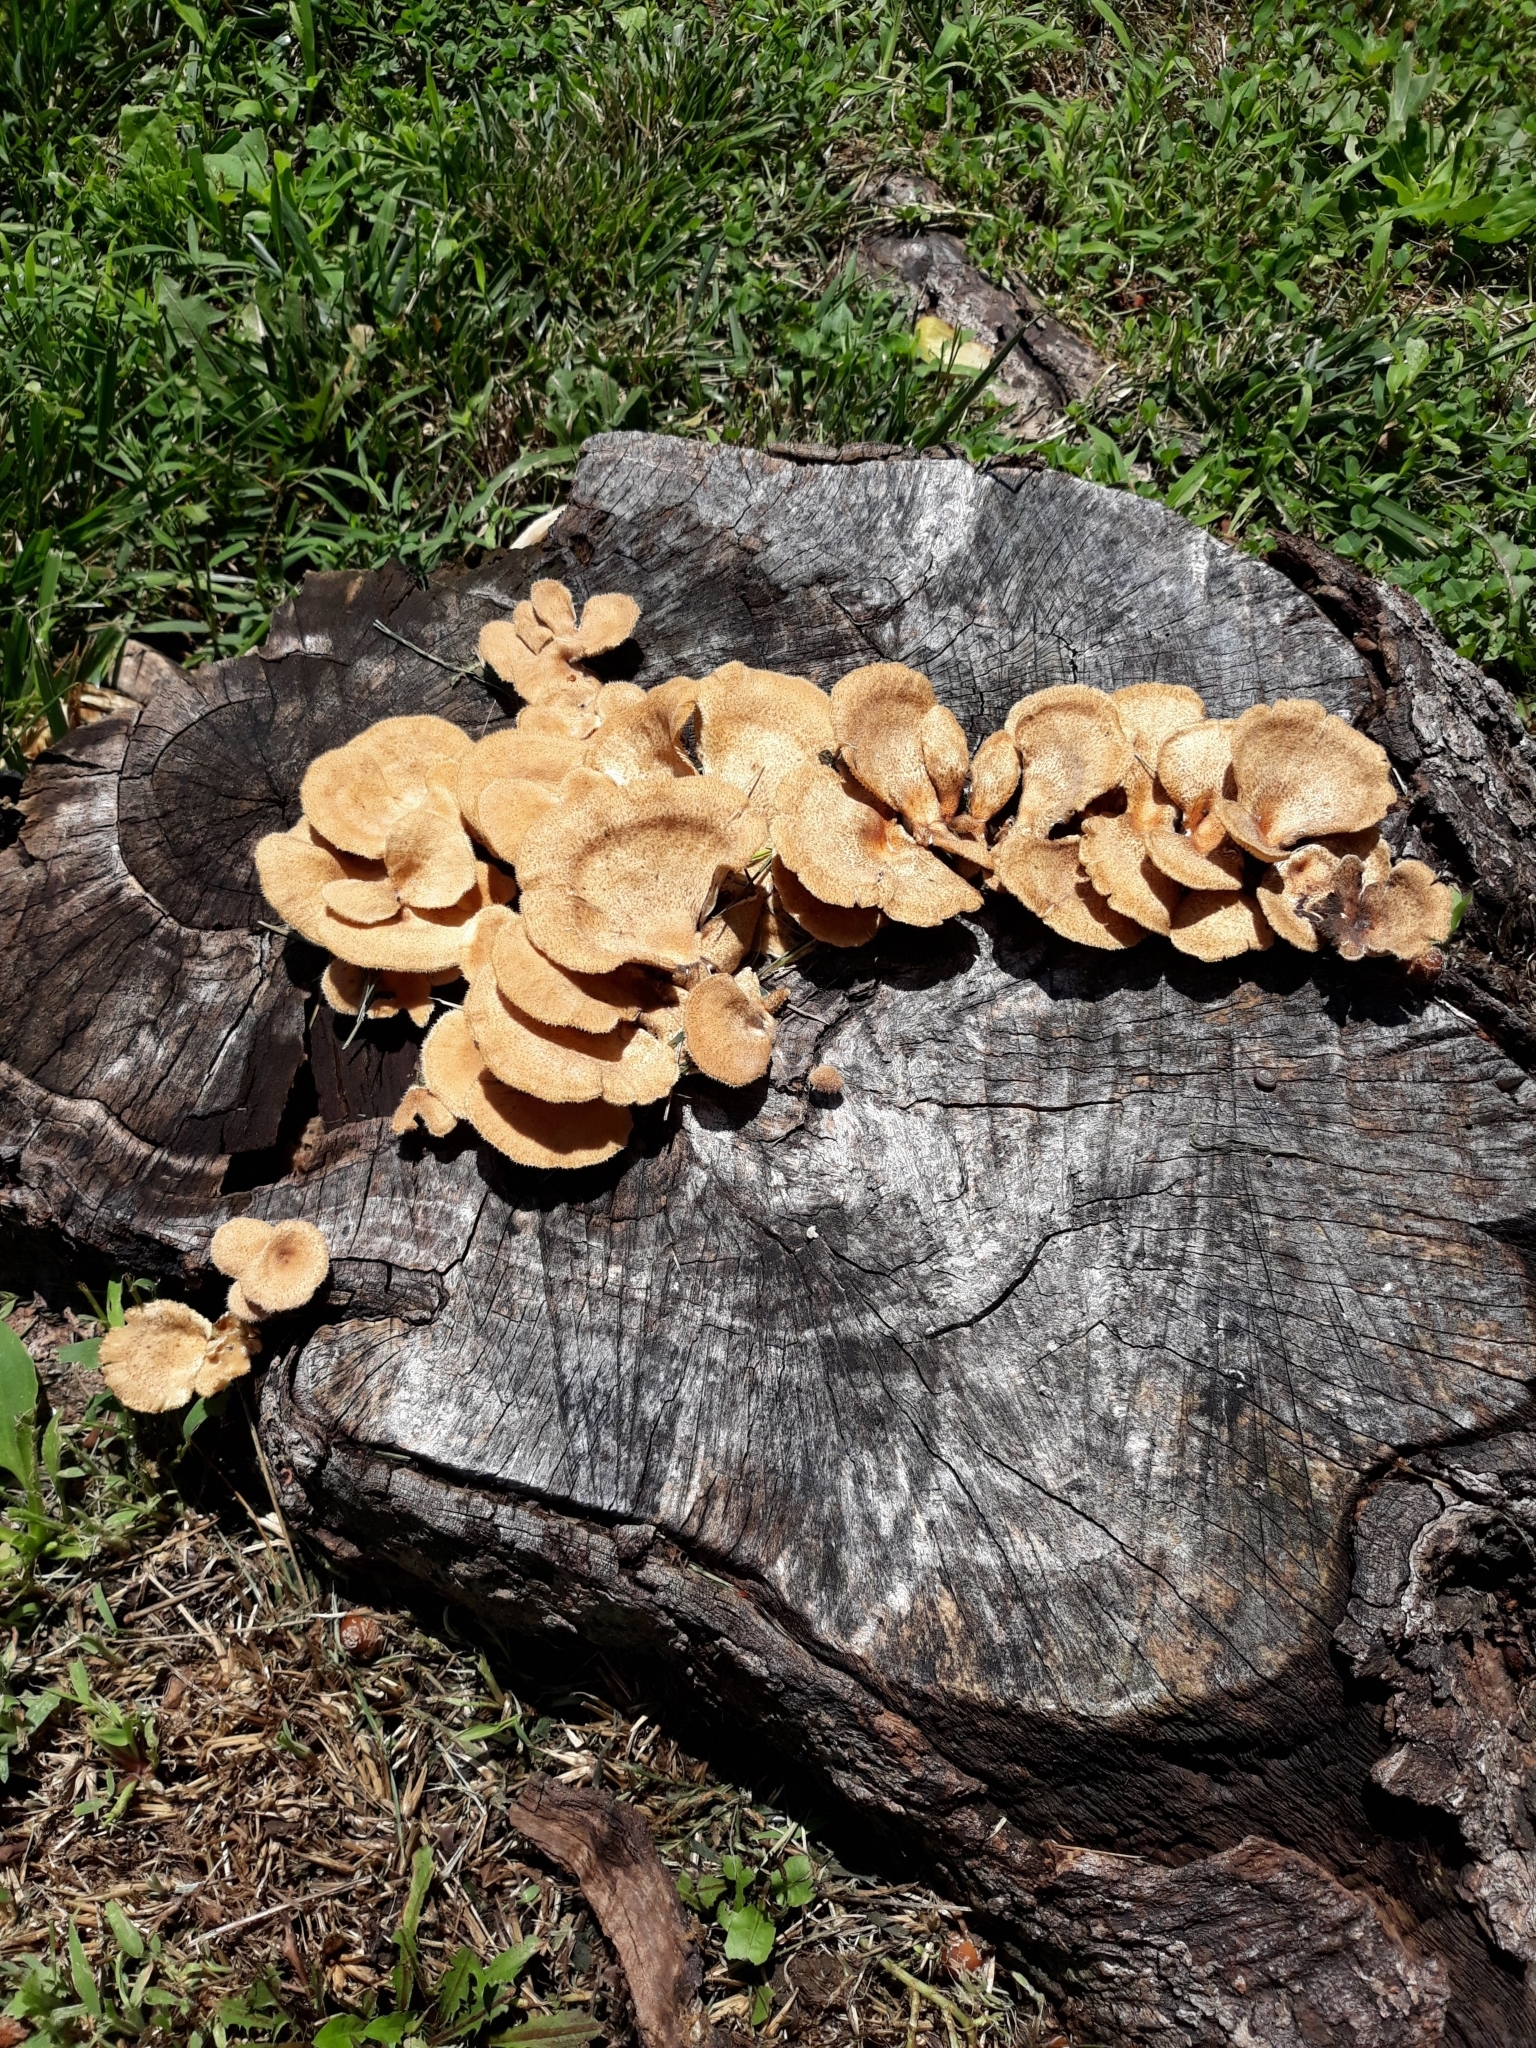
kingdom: Fungi
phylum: Basidiomycota
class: Agaricomycetes
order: Polyporales
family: Panaceae
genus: Panus
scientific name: Panus neostrigosus
